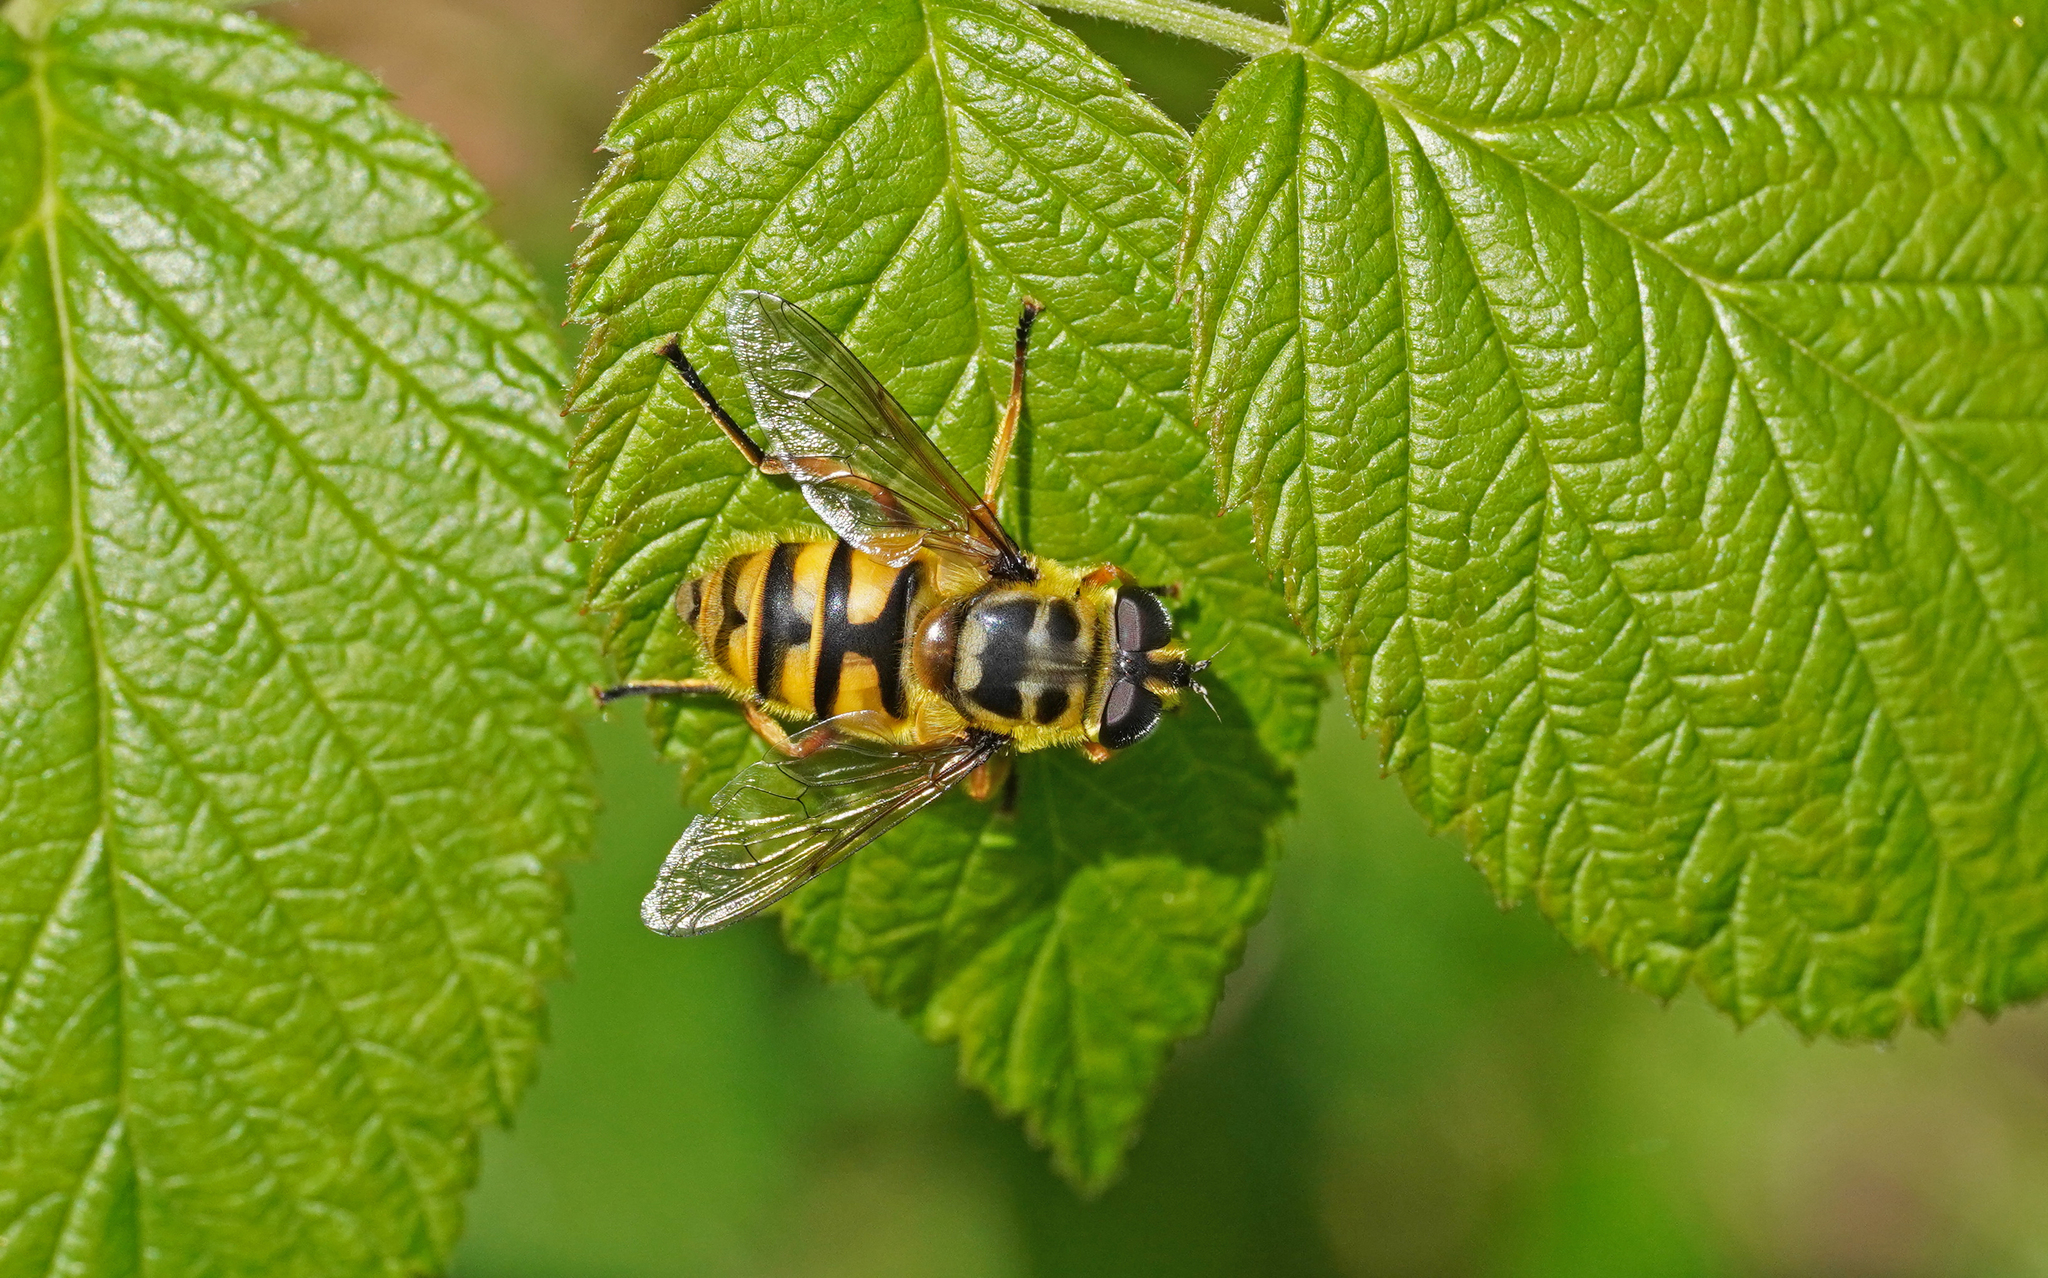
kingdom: Animalia
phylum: Arthropoda
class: Insecta
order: Diptera
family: Syrphidae
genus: Myathropa
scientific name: Myathropa florea
